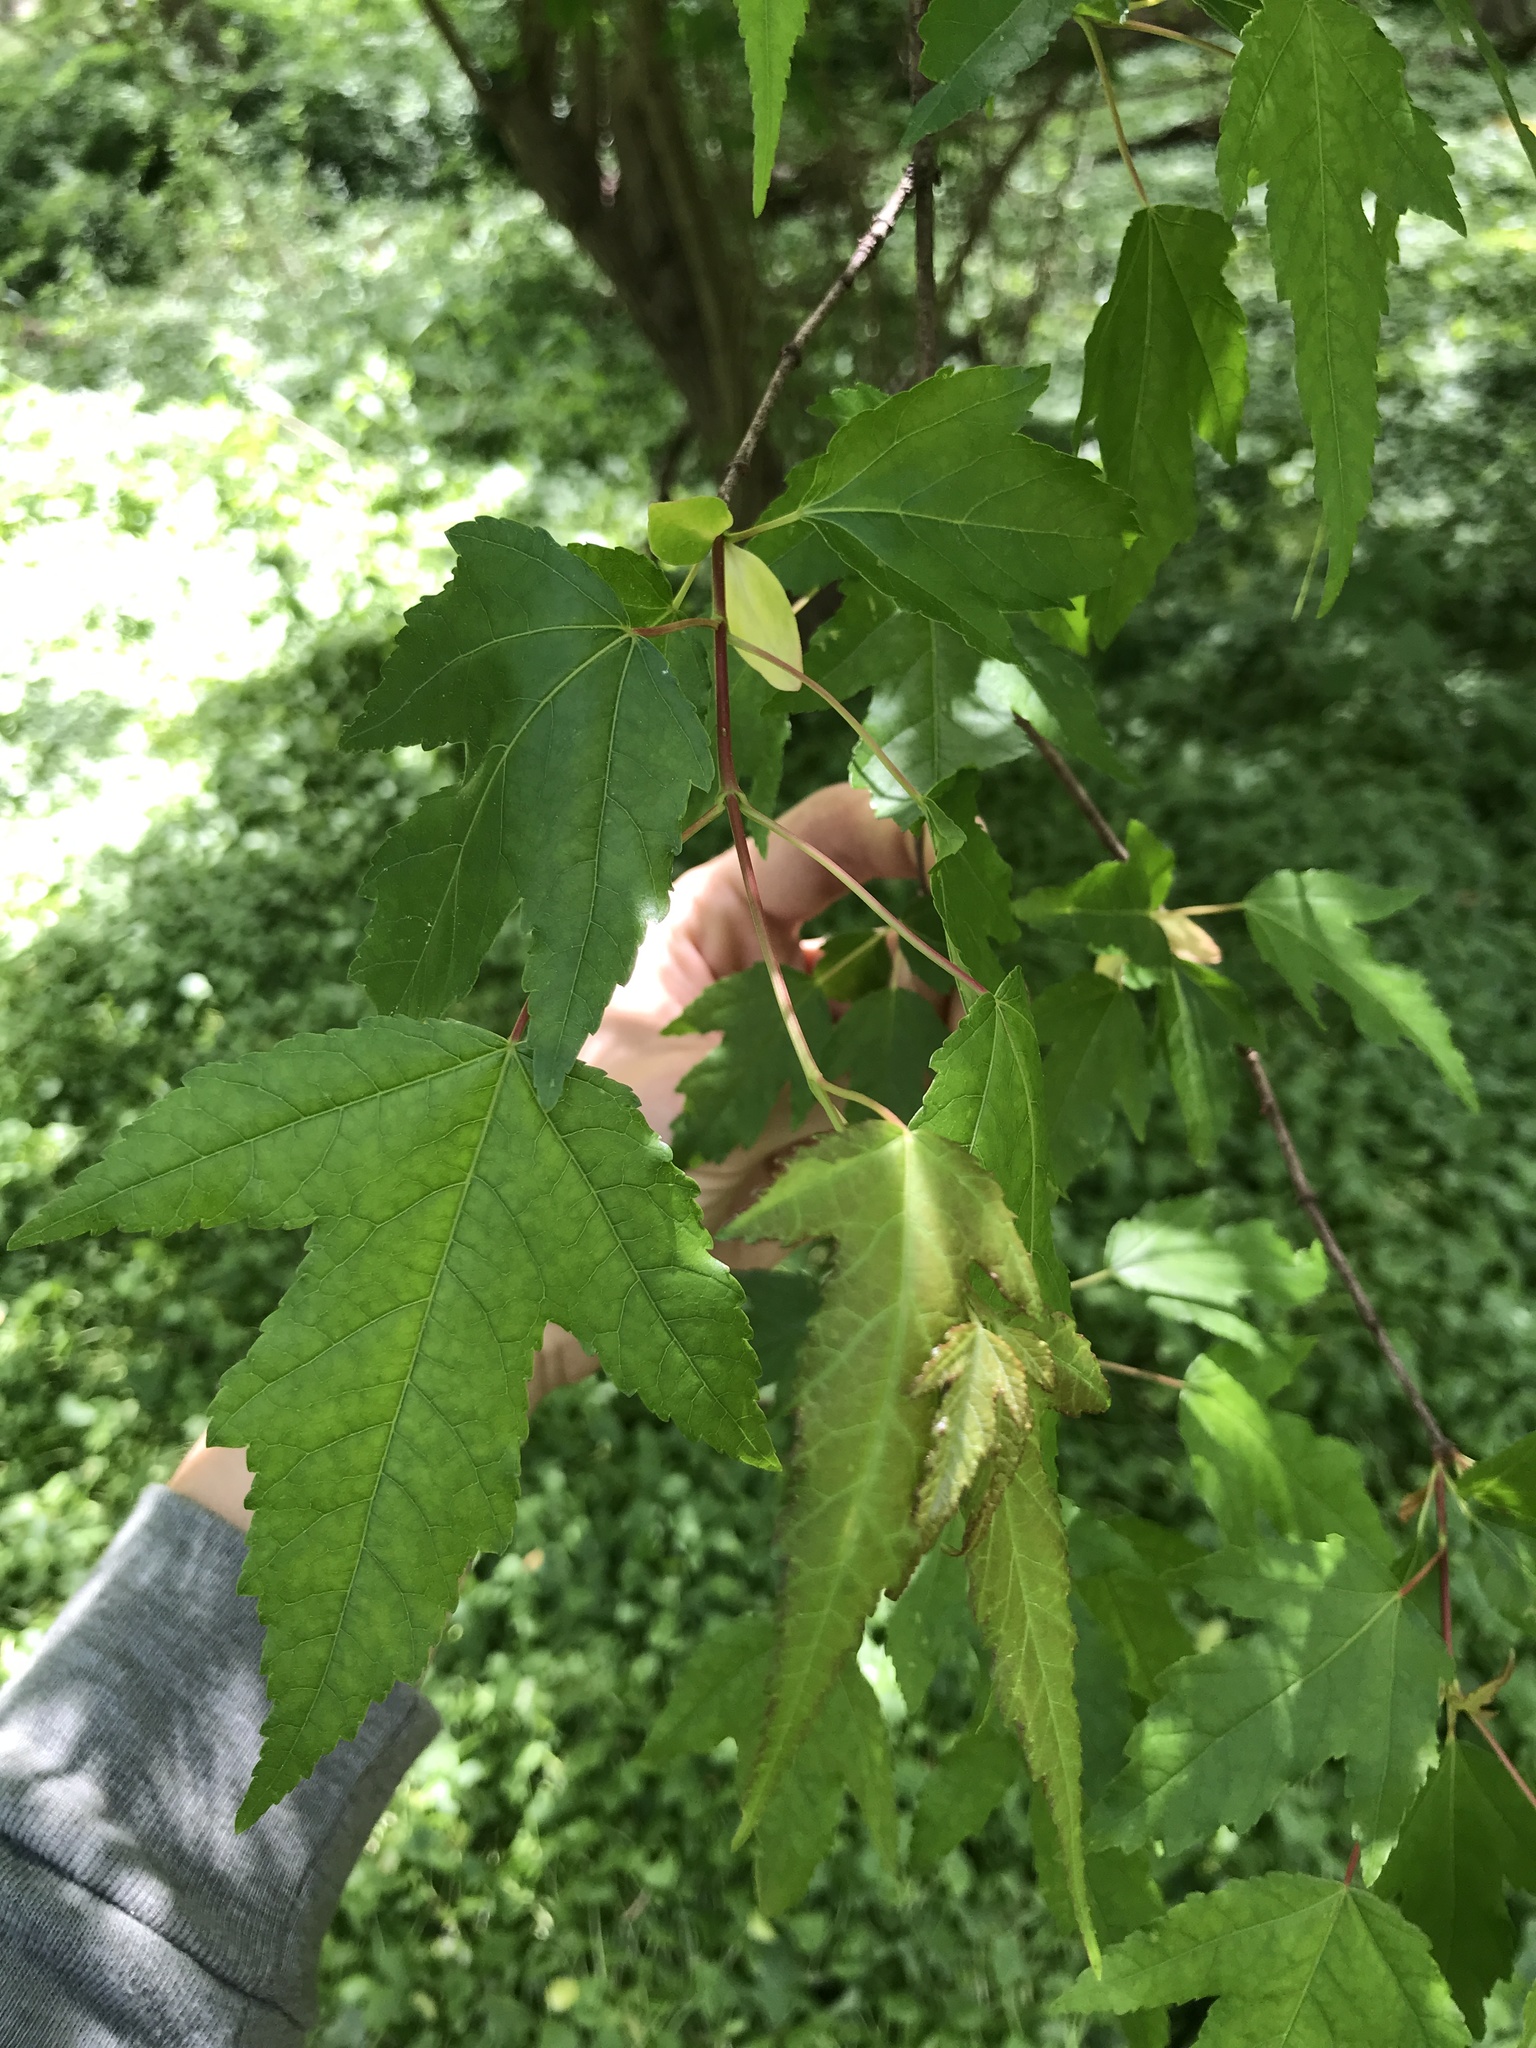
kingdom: Plantae
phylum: Tracheophyta
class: Magnoliopsida
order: Sapindales
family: Sapindaceae
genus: Acer
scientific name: Acer tataricum
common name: Tartar maple
